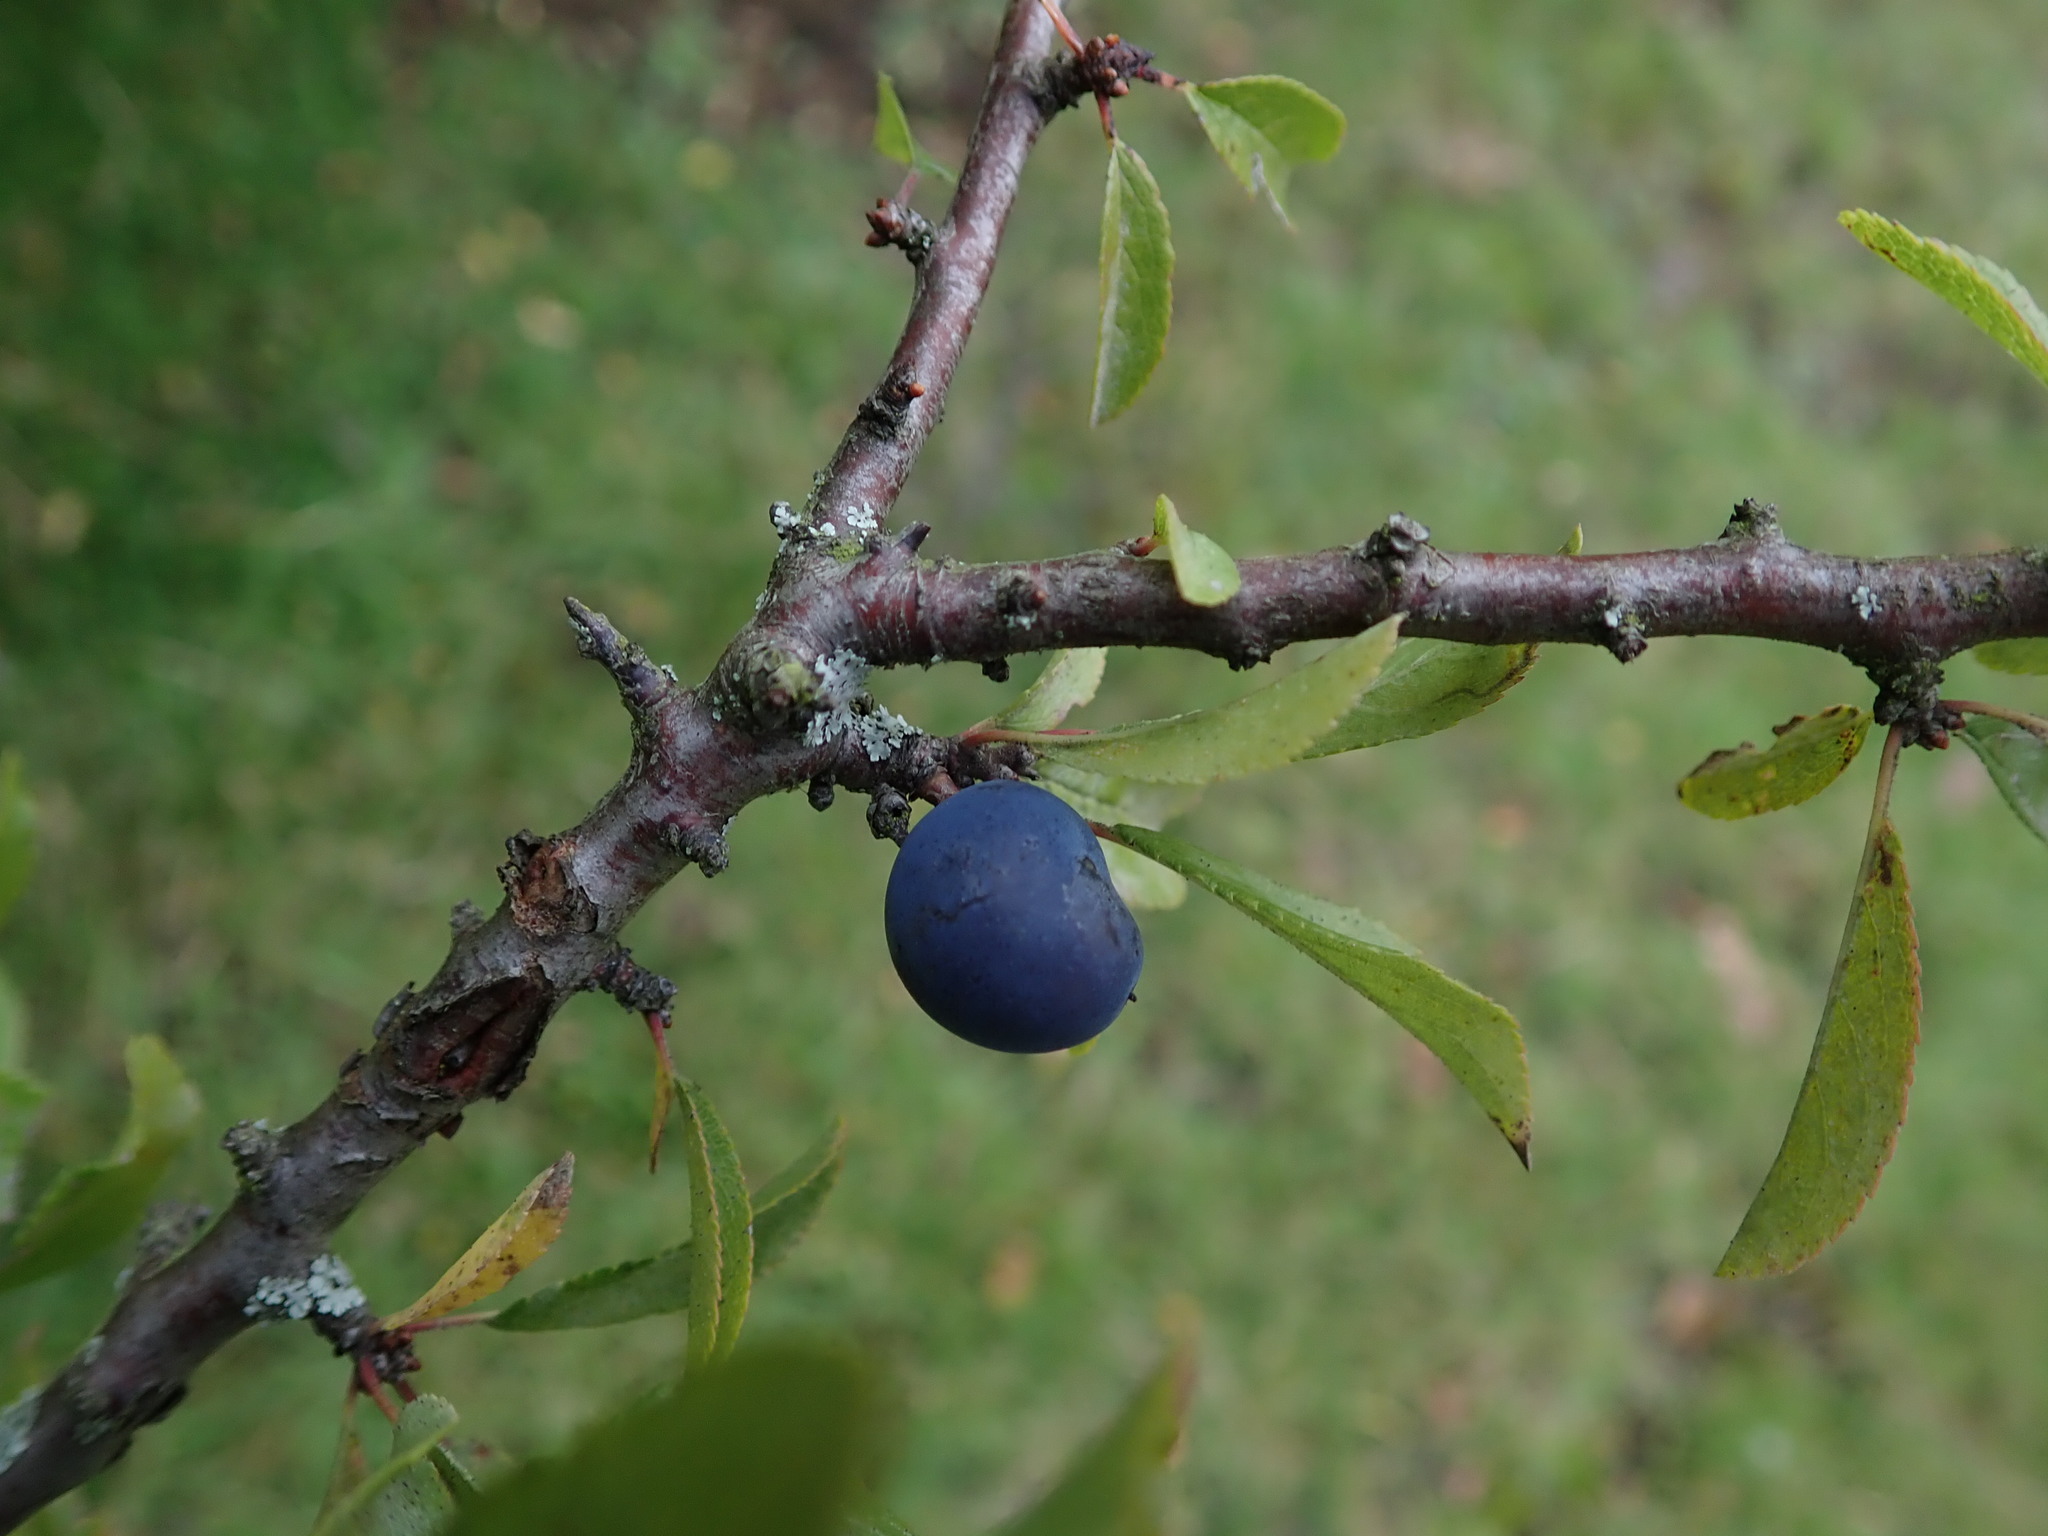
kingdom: Plantae
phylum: Tracheophyta
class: Magnoliopsida
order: Rosales
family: Rosaceae
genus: Prunus
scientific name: Prunus spinosa
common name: Blackthorn
